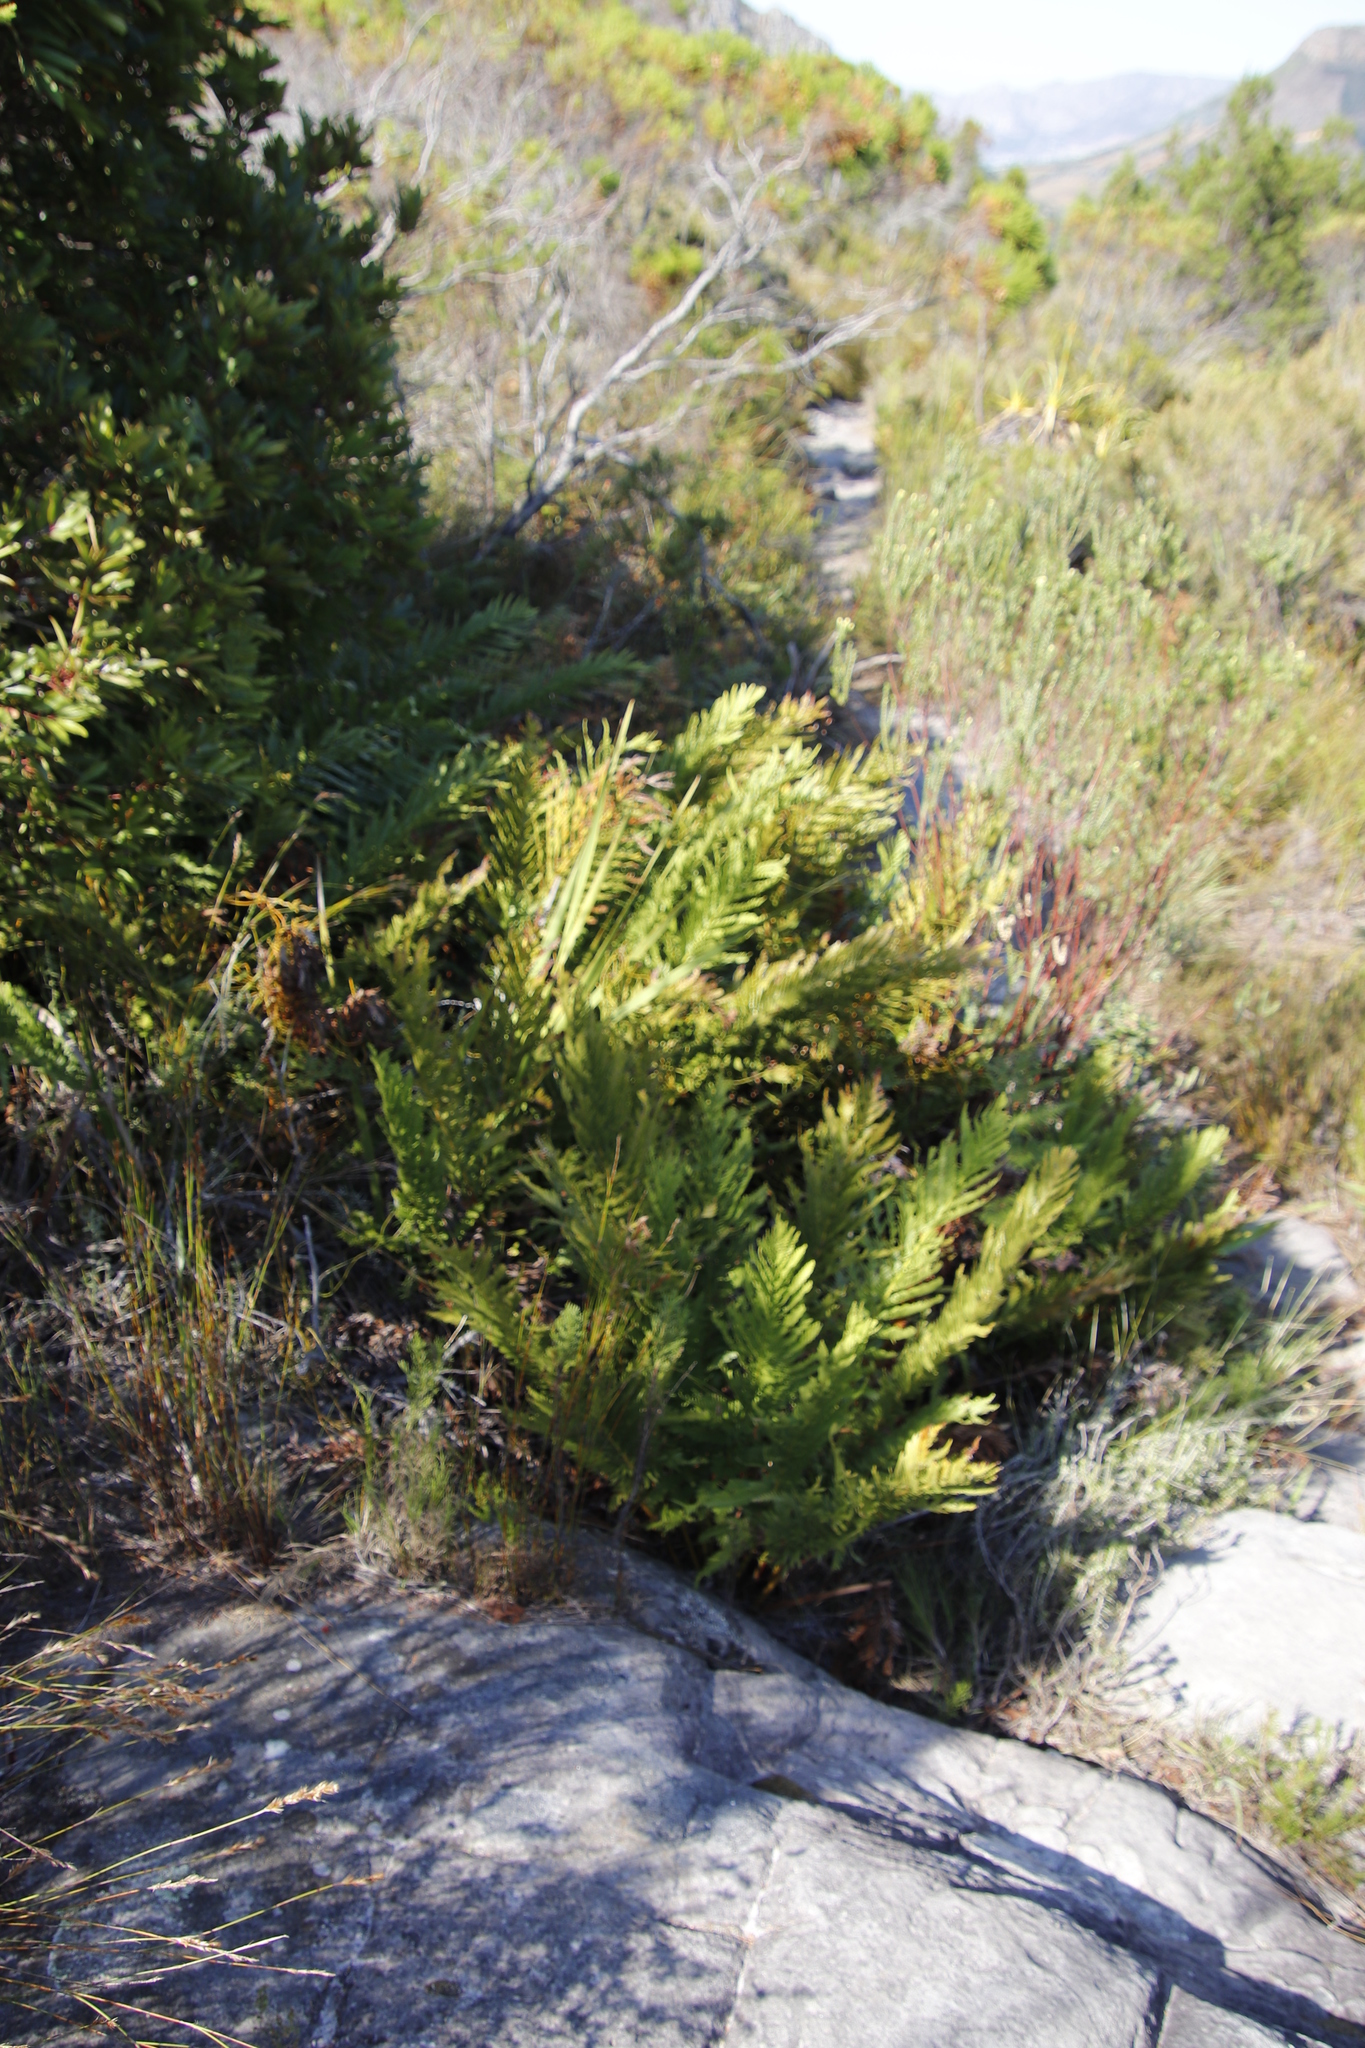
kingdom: Plantae
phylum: Tracheophyta
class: Polypodiopsida
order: Osmundales
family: Osmundaceae
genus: Todea
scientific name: Todea barbara
